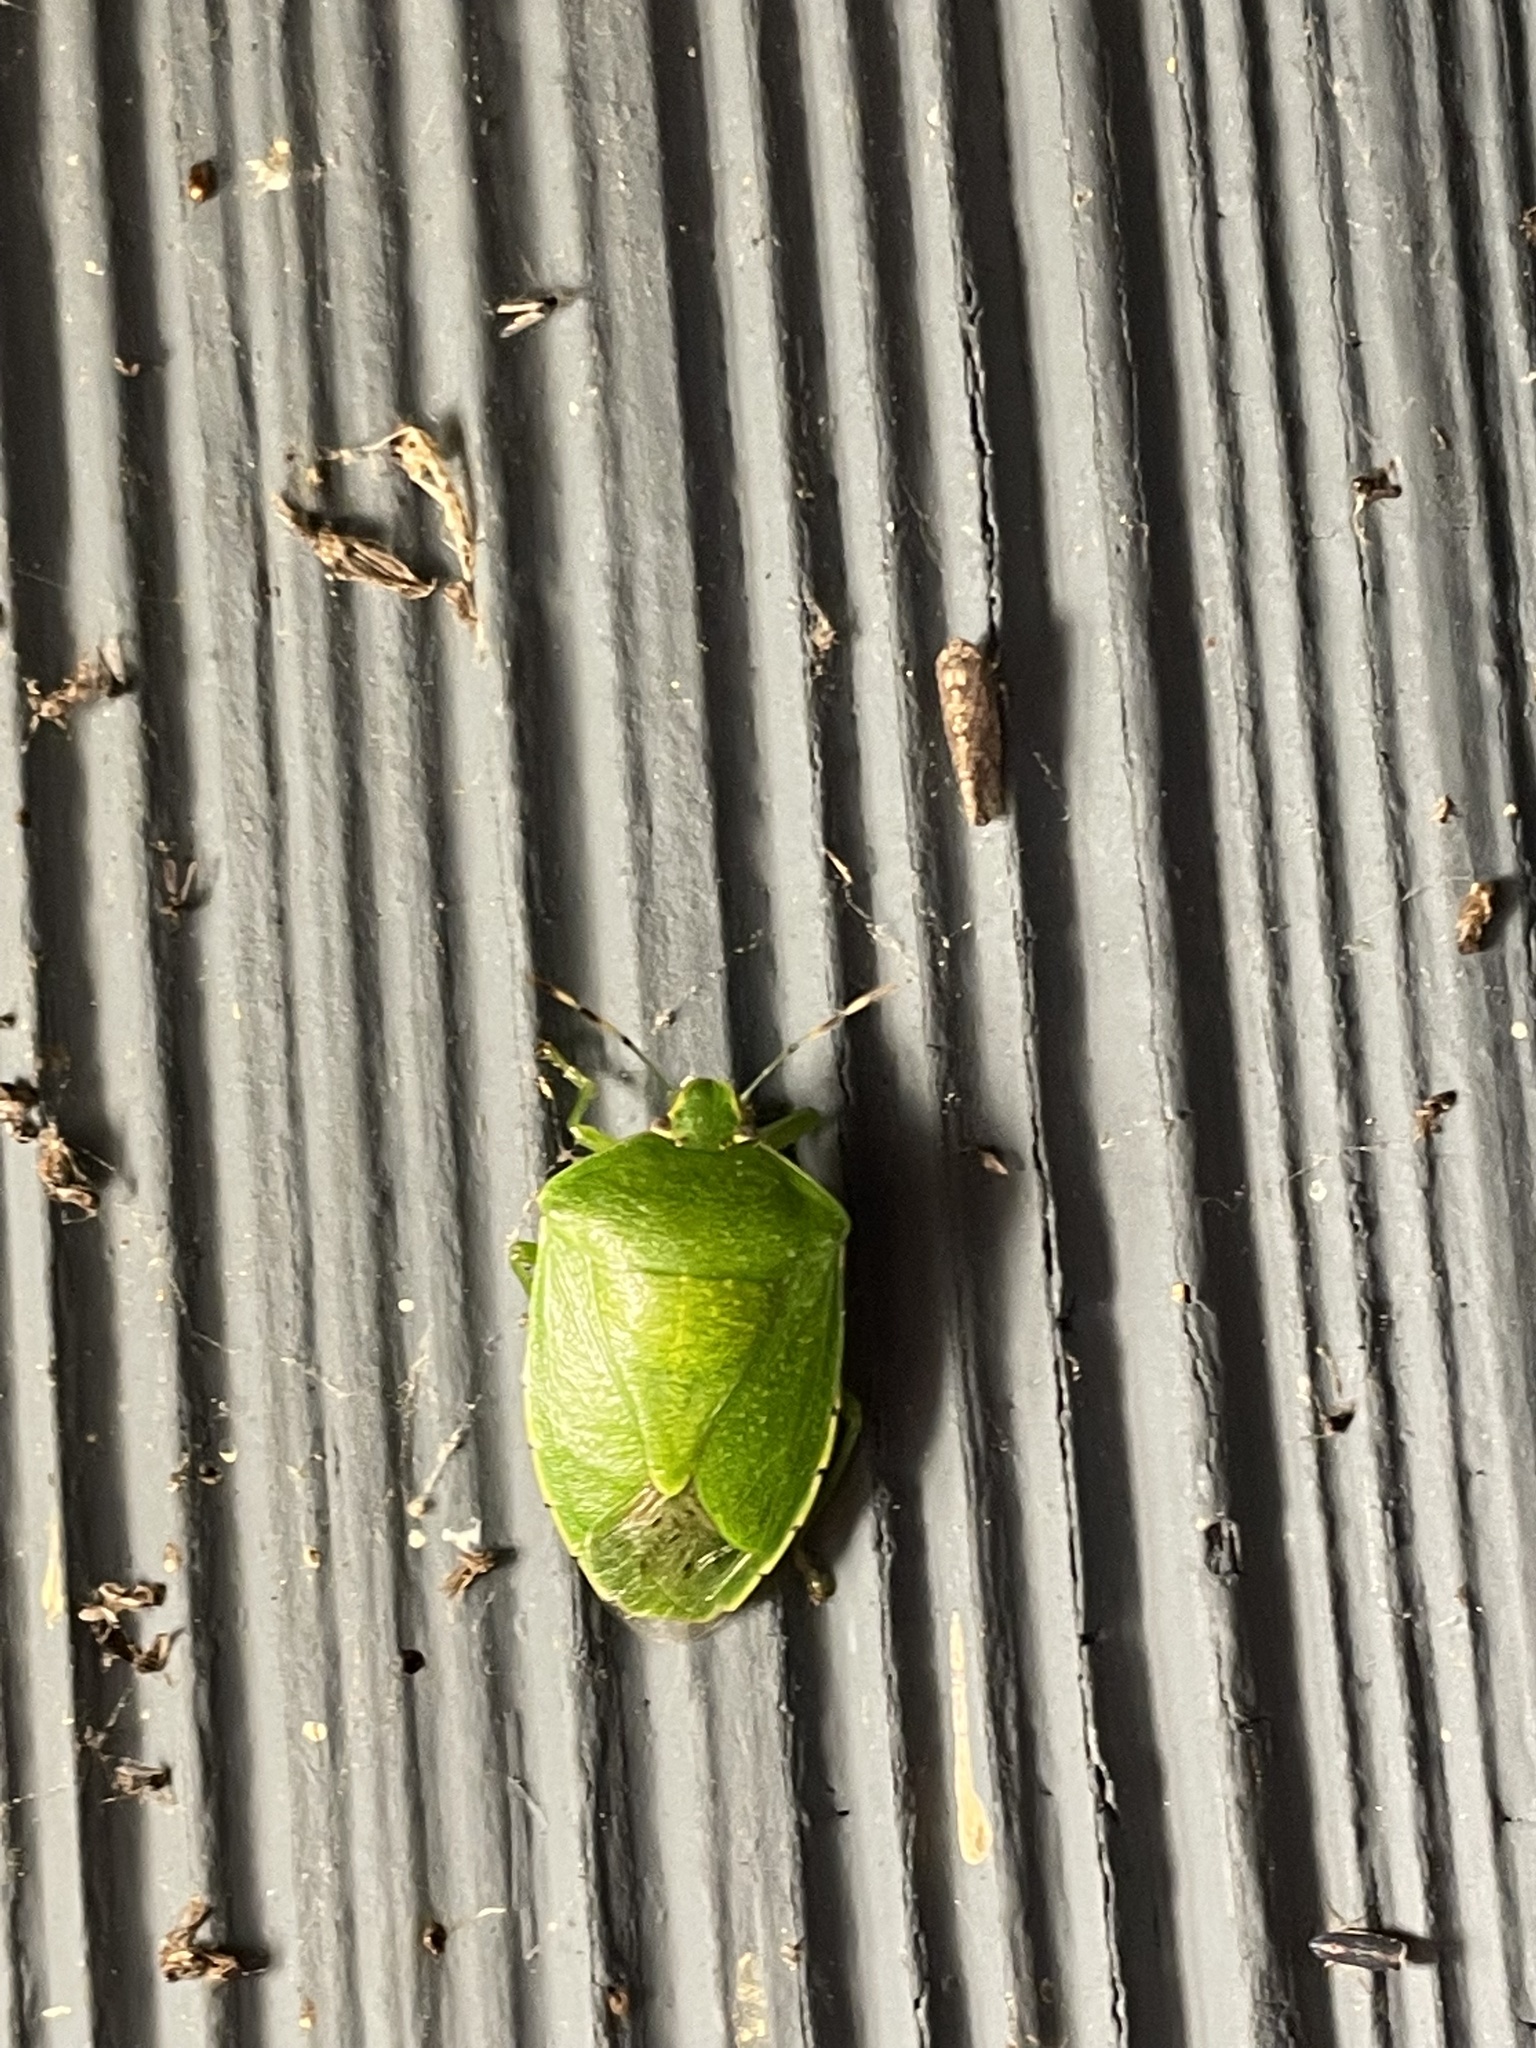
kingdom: Animalia
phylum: Arthropoda
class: Insecta
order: Hemiptera
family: Pentatomidae
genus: Chinavia
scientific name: Chinavia hilaris
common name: Green stink bug
